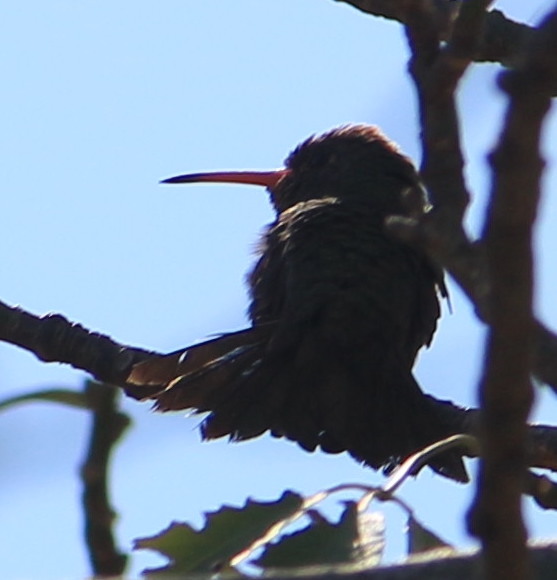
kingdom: Animalia
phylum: Chordata
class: Aves
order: Apodiformes
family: Trochilidae
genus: Hylocharis
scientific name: Hylocharis chrysura
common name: Gilded sapphire
